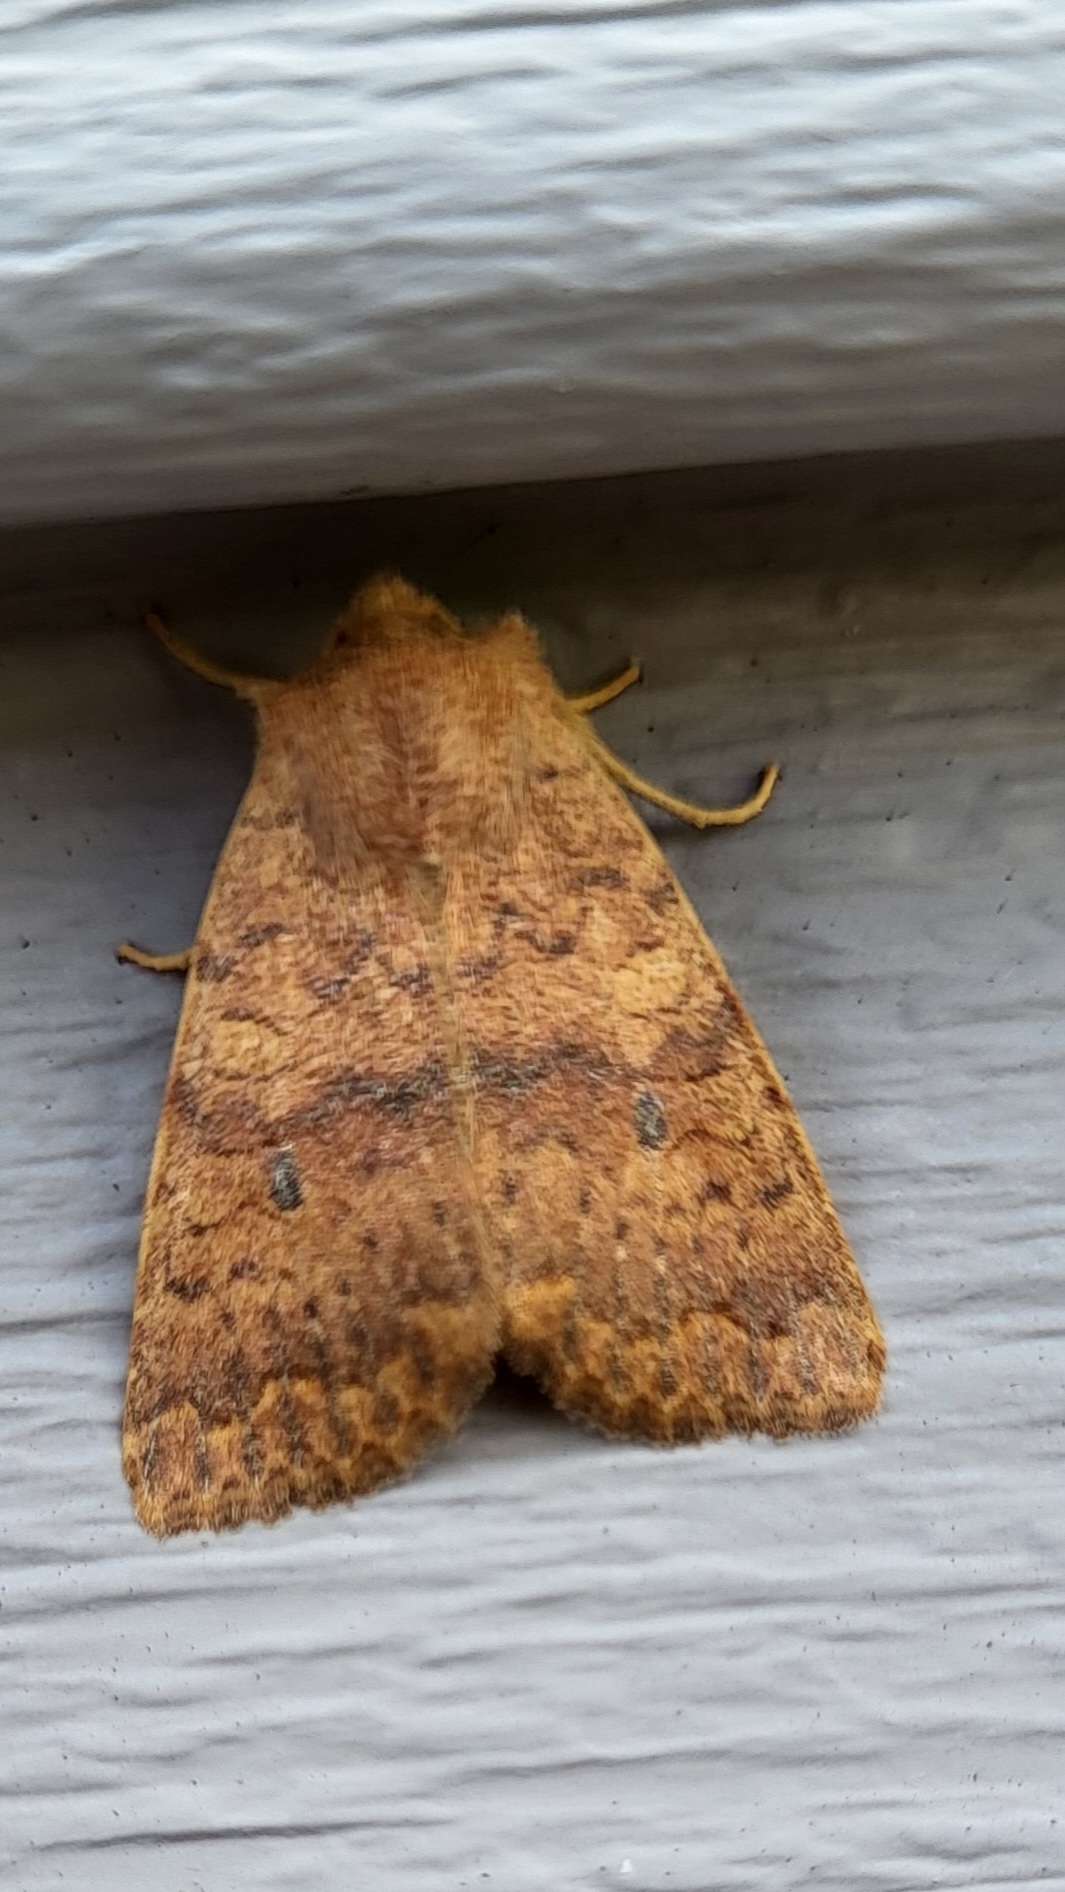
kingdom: Animalia
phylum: Arthropoda
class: Insecta
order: Lepidoptera
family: Noctuidae
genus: Agrochola
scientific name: Agrochola bicolorago
